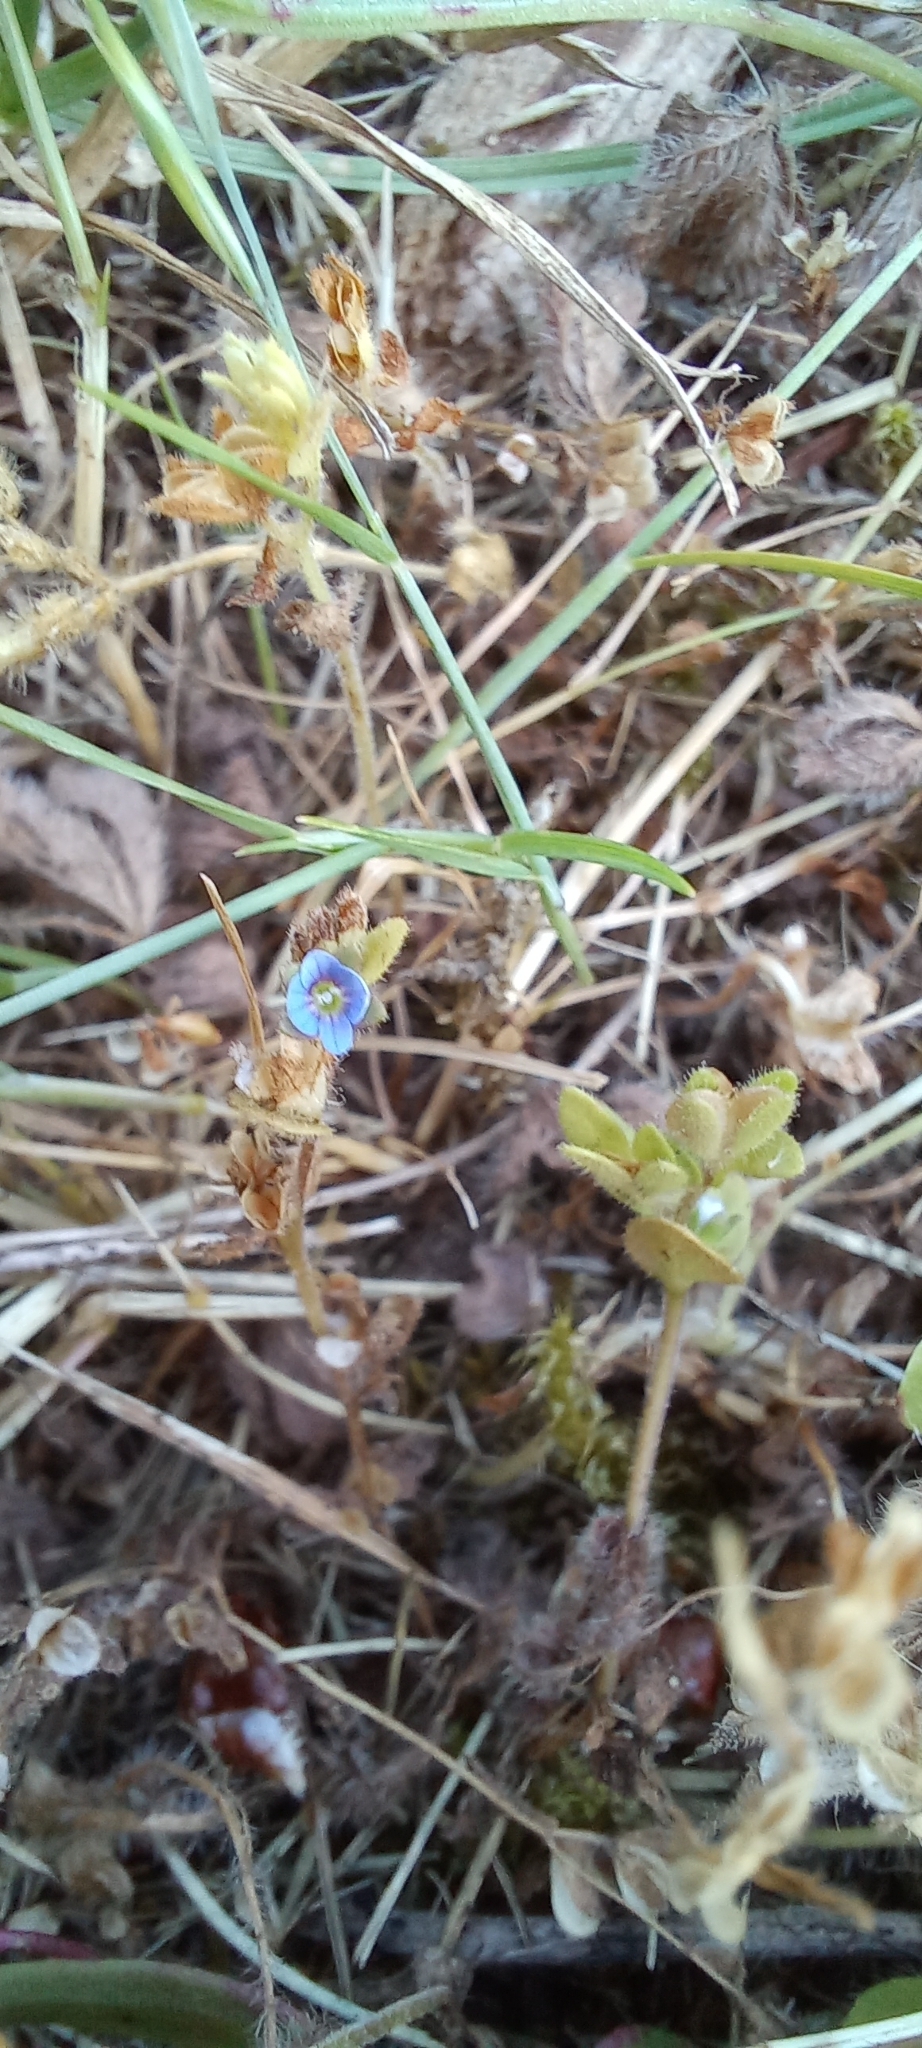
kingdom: Plantae
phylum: Tracheophyta
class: Magnoliopsida
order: Lamiales
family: Plantaginaceae
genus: Veronica
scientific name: Veronica arvensis
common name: Corn speedwell
